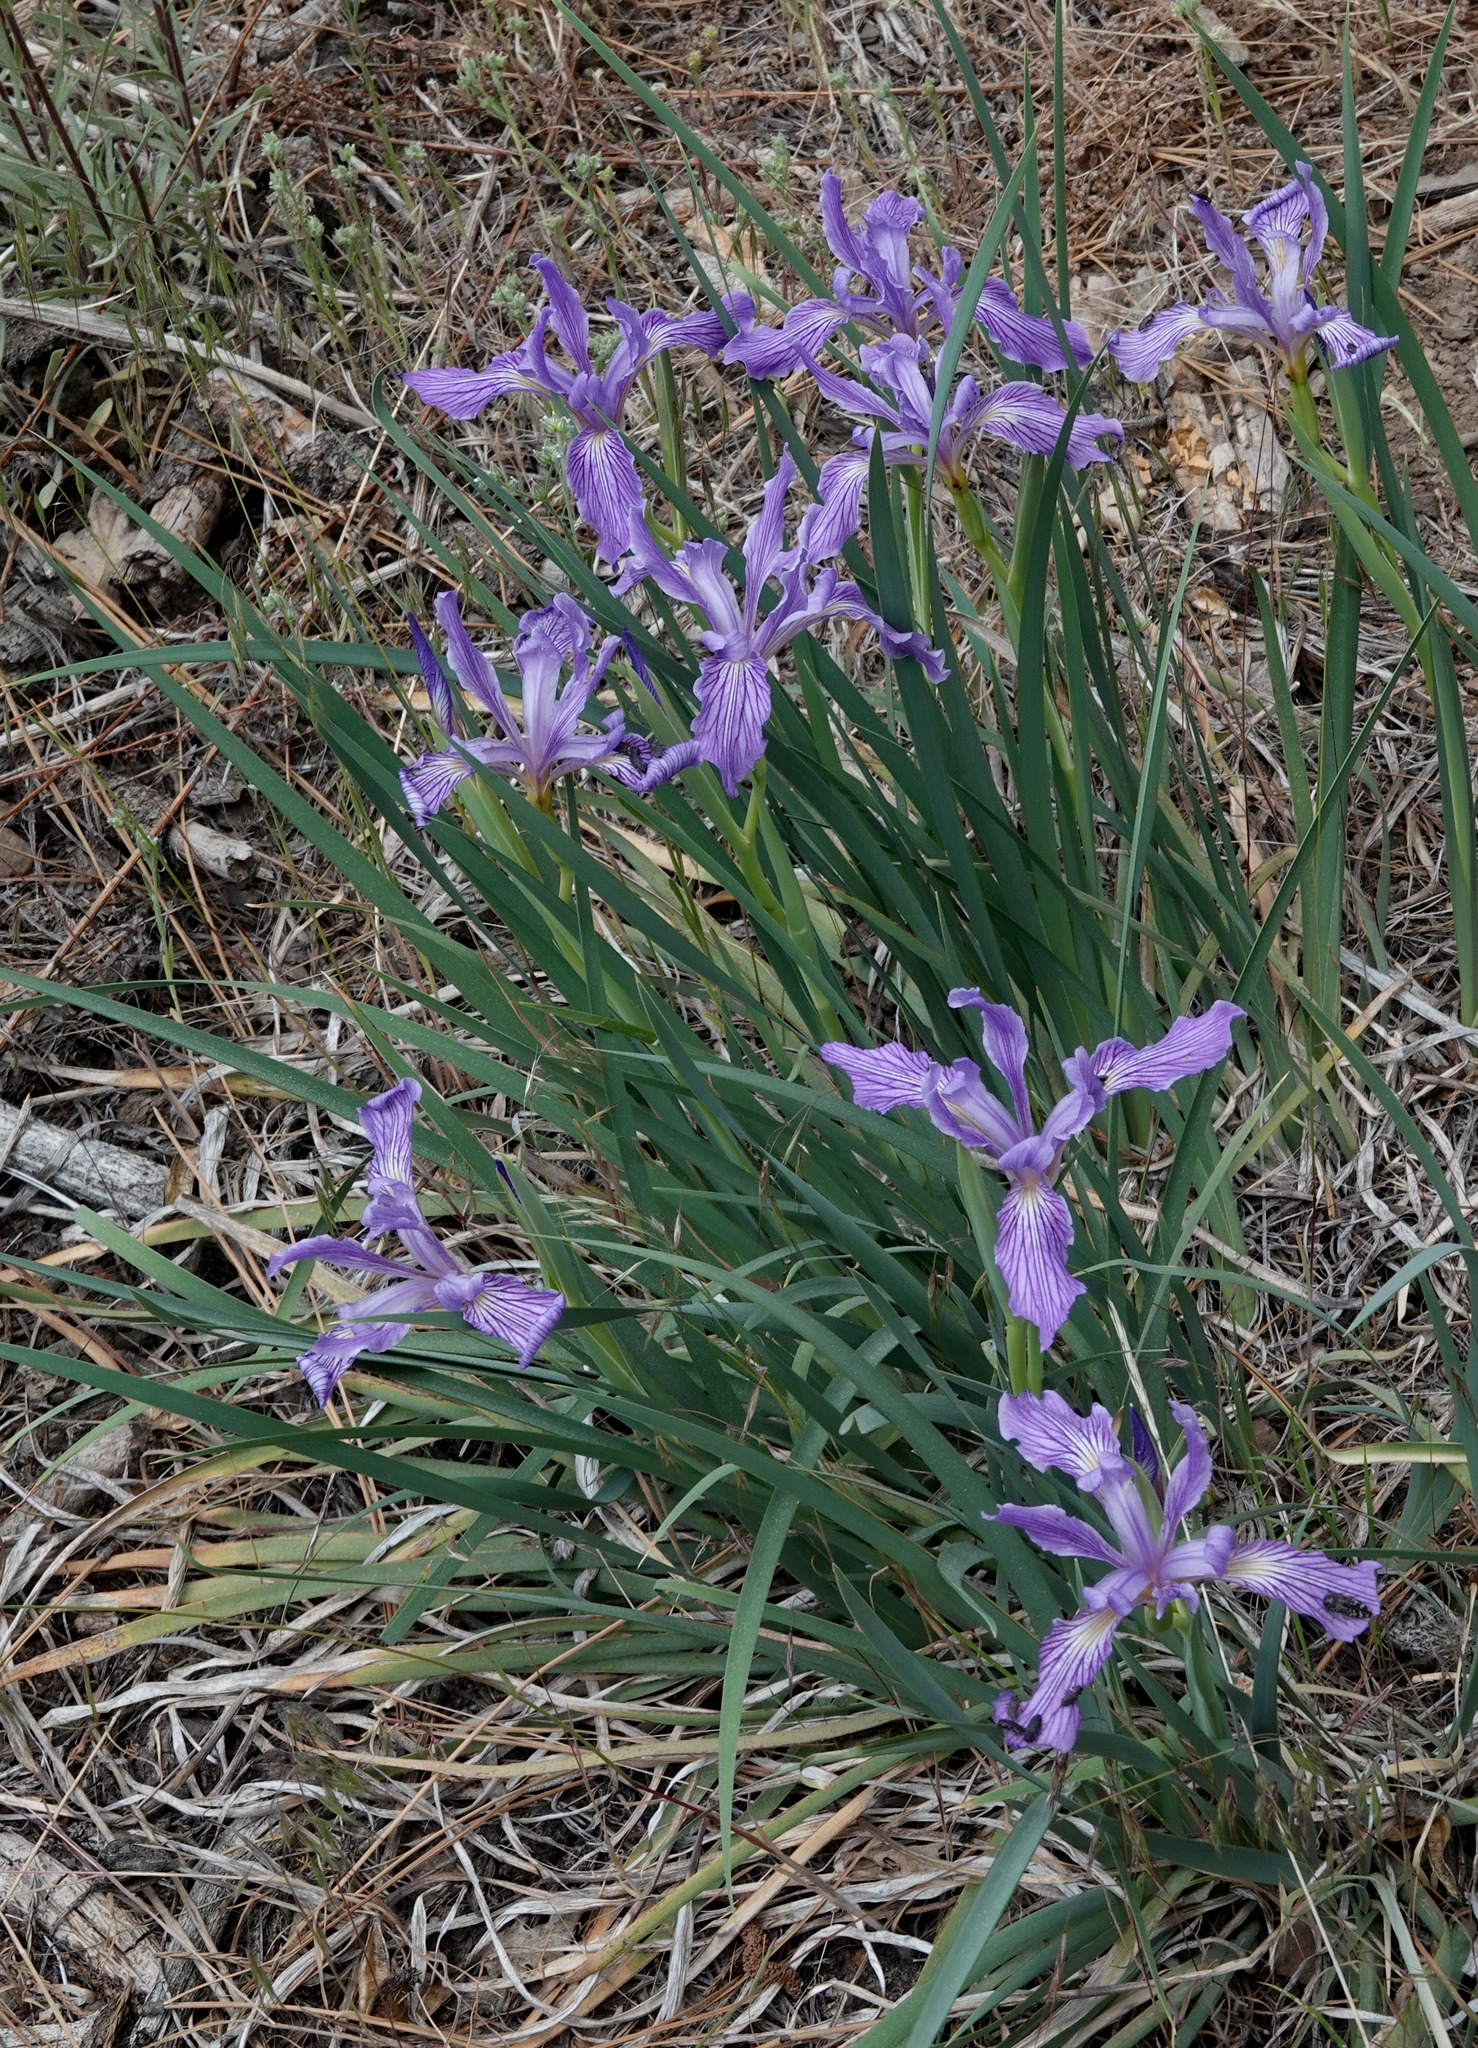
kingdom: Plantae
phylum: Tracheophyta
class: Liliopsida
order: Asparagales
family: Iridaceae
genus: Iris
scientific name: Iris hartwegii
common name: Sierra iris
